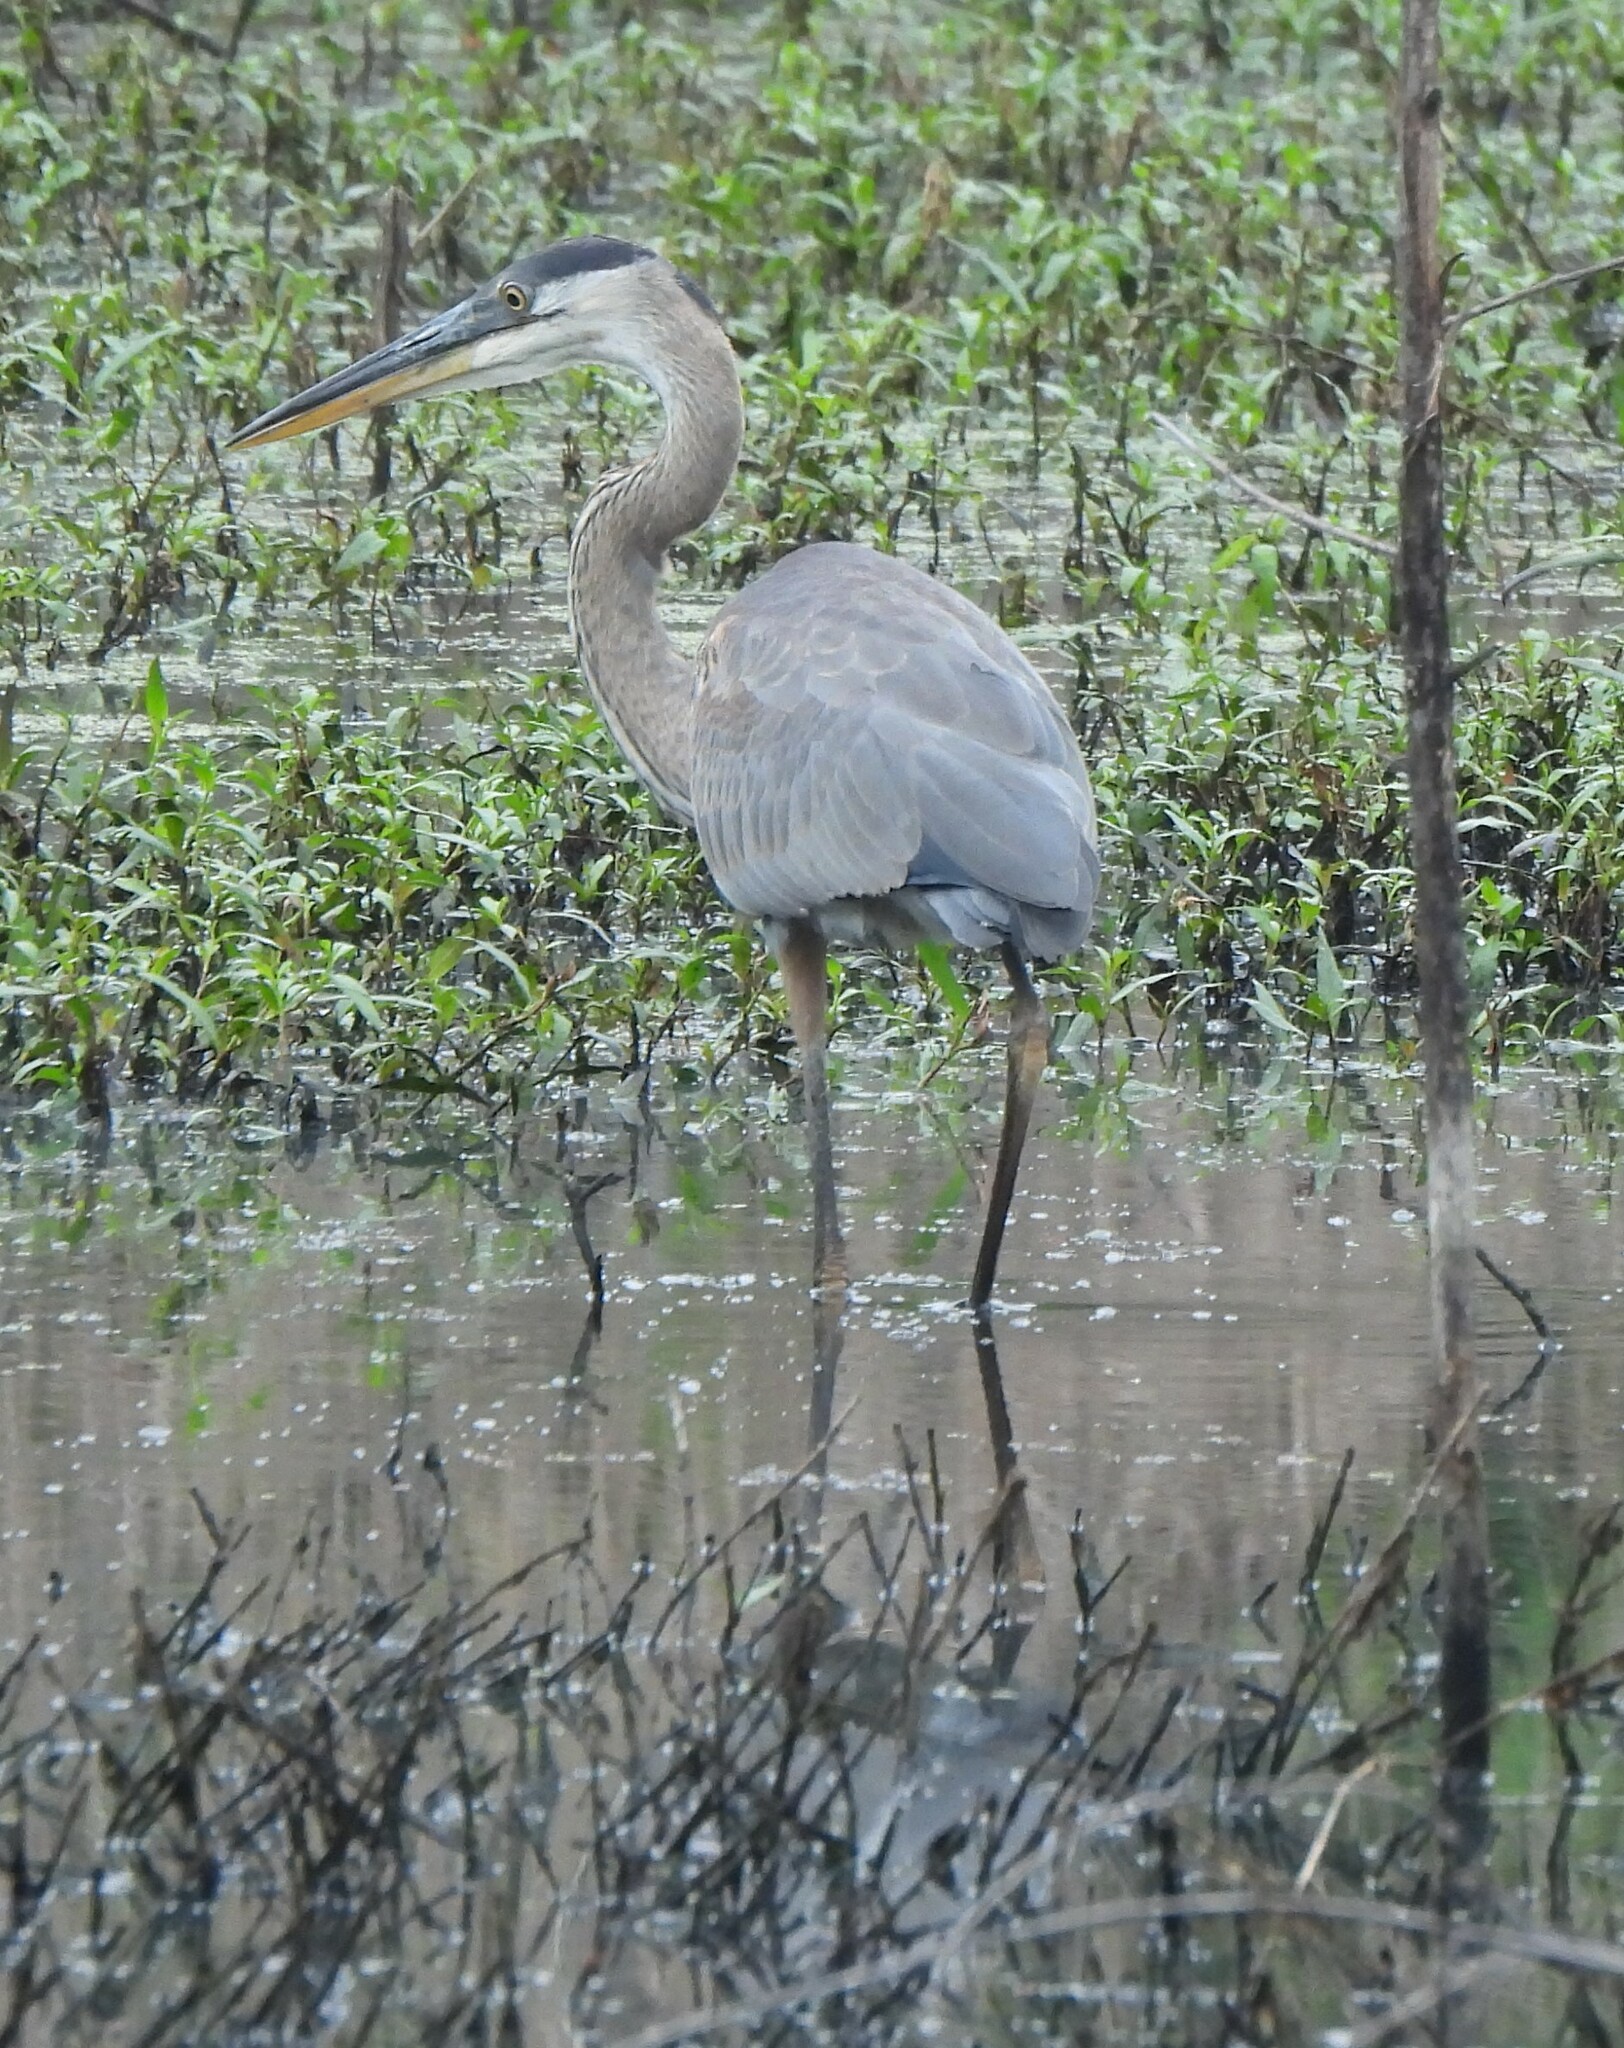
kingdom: Animalia
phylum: Chordata
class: Aves
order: Pelecaniformes
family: Ardeidae
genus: Ardea
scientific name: Ardea herodias
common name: Great blue heron
